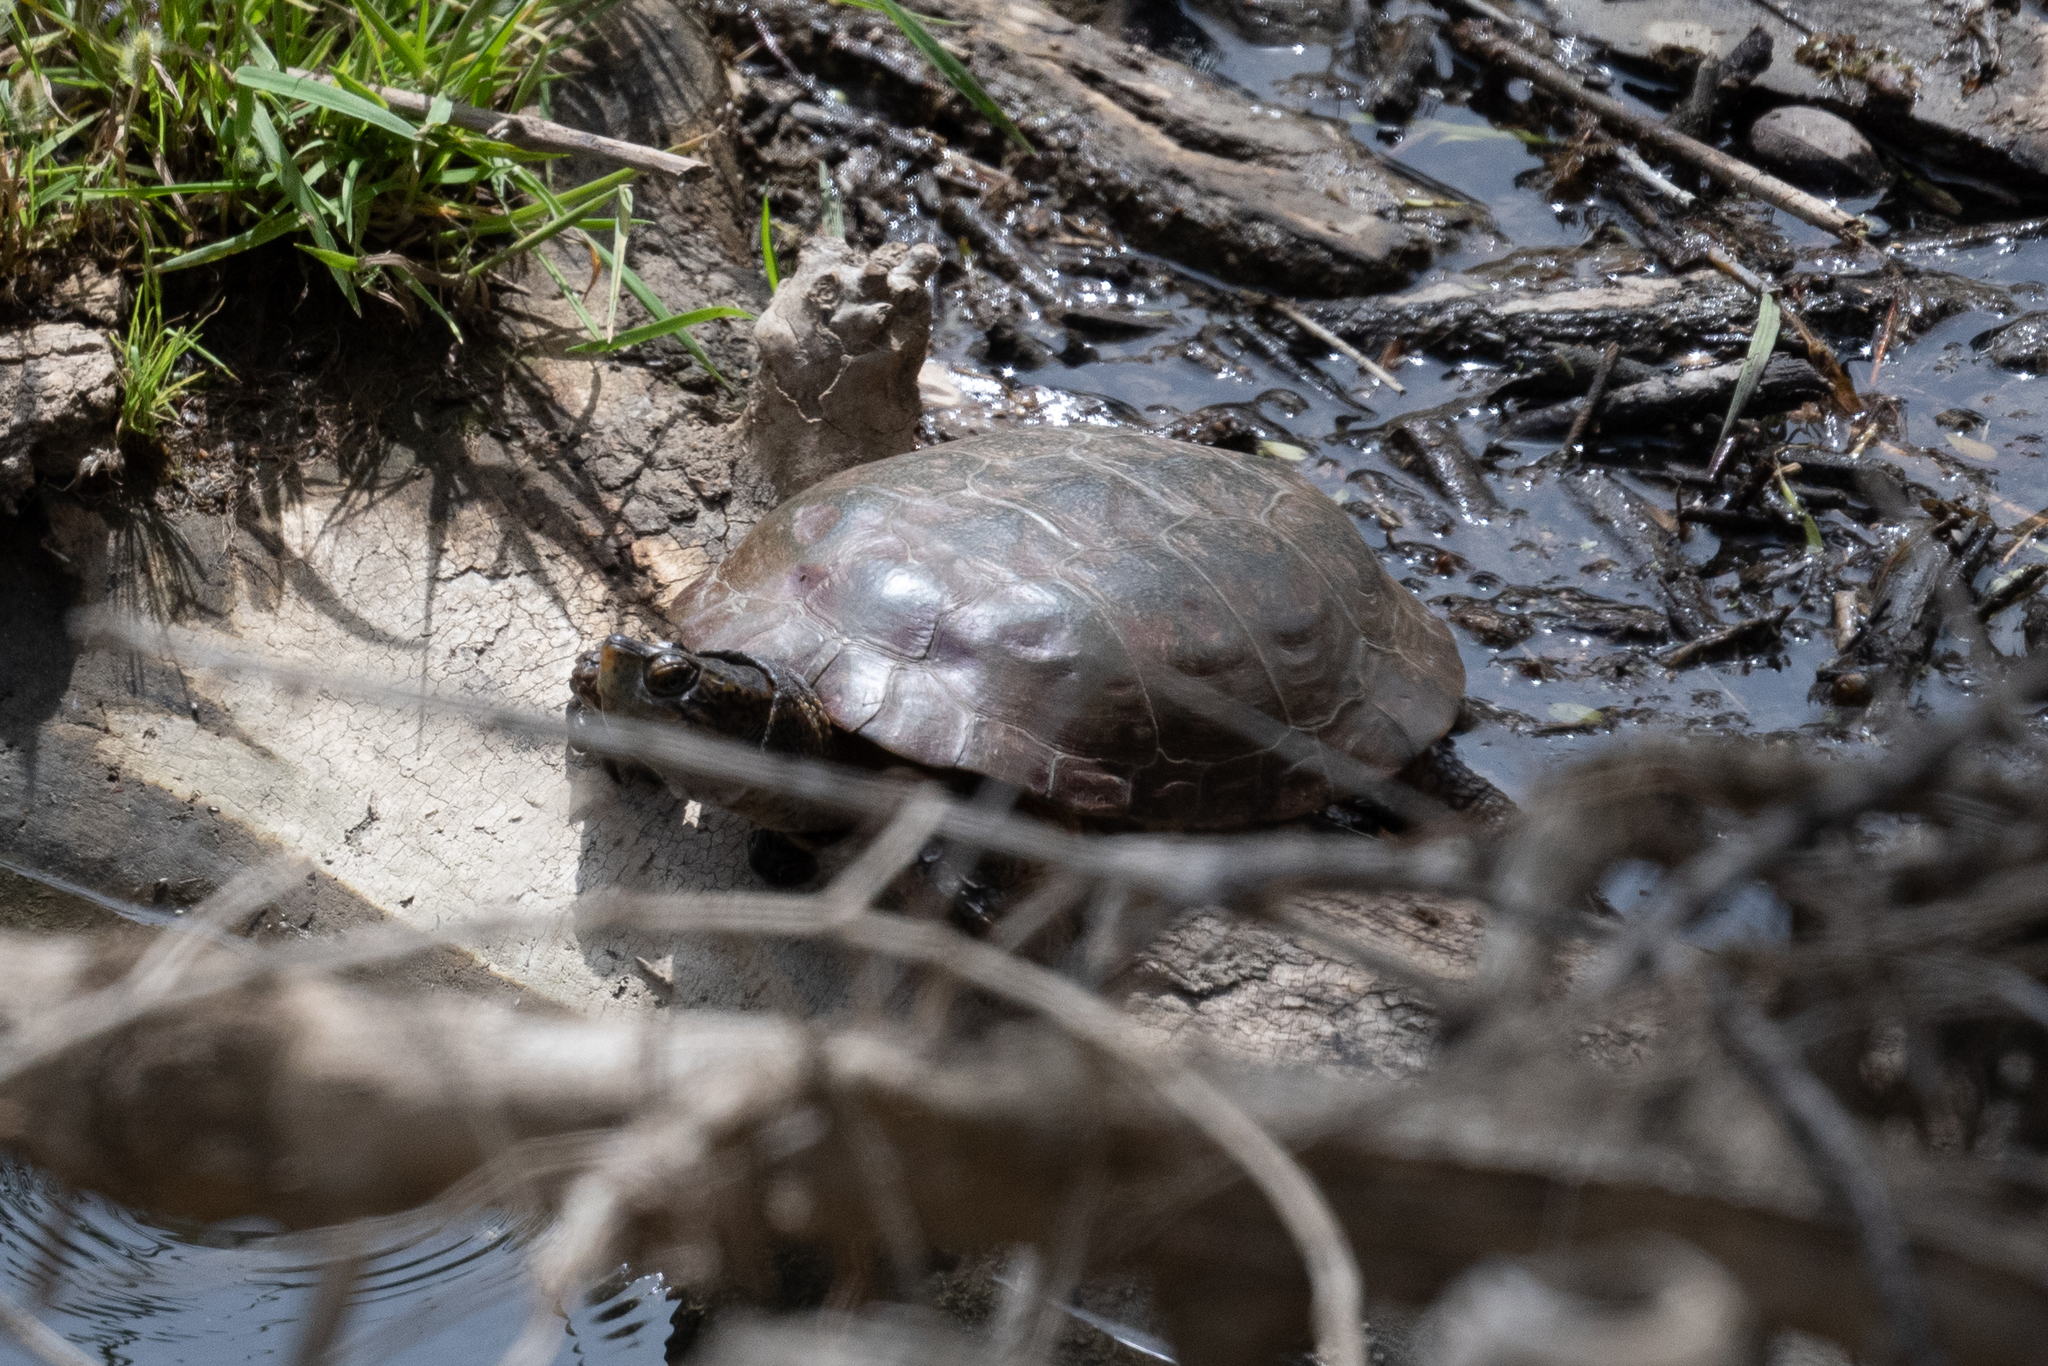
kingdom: Animalia
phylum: Chordata
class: Testudines
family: Emydidae
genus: Actinemys
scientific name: Actinemys marmorata
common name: Western pond turtle
